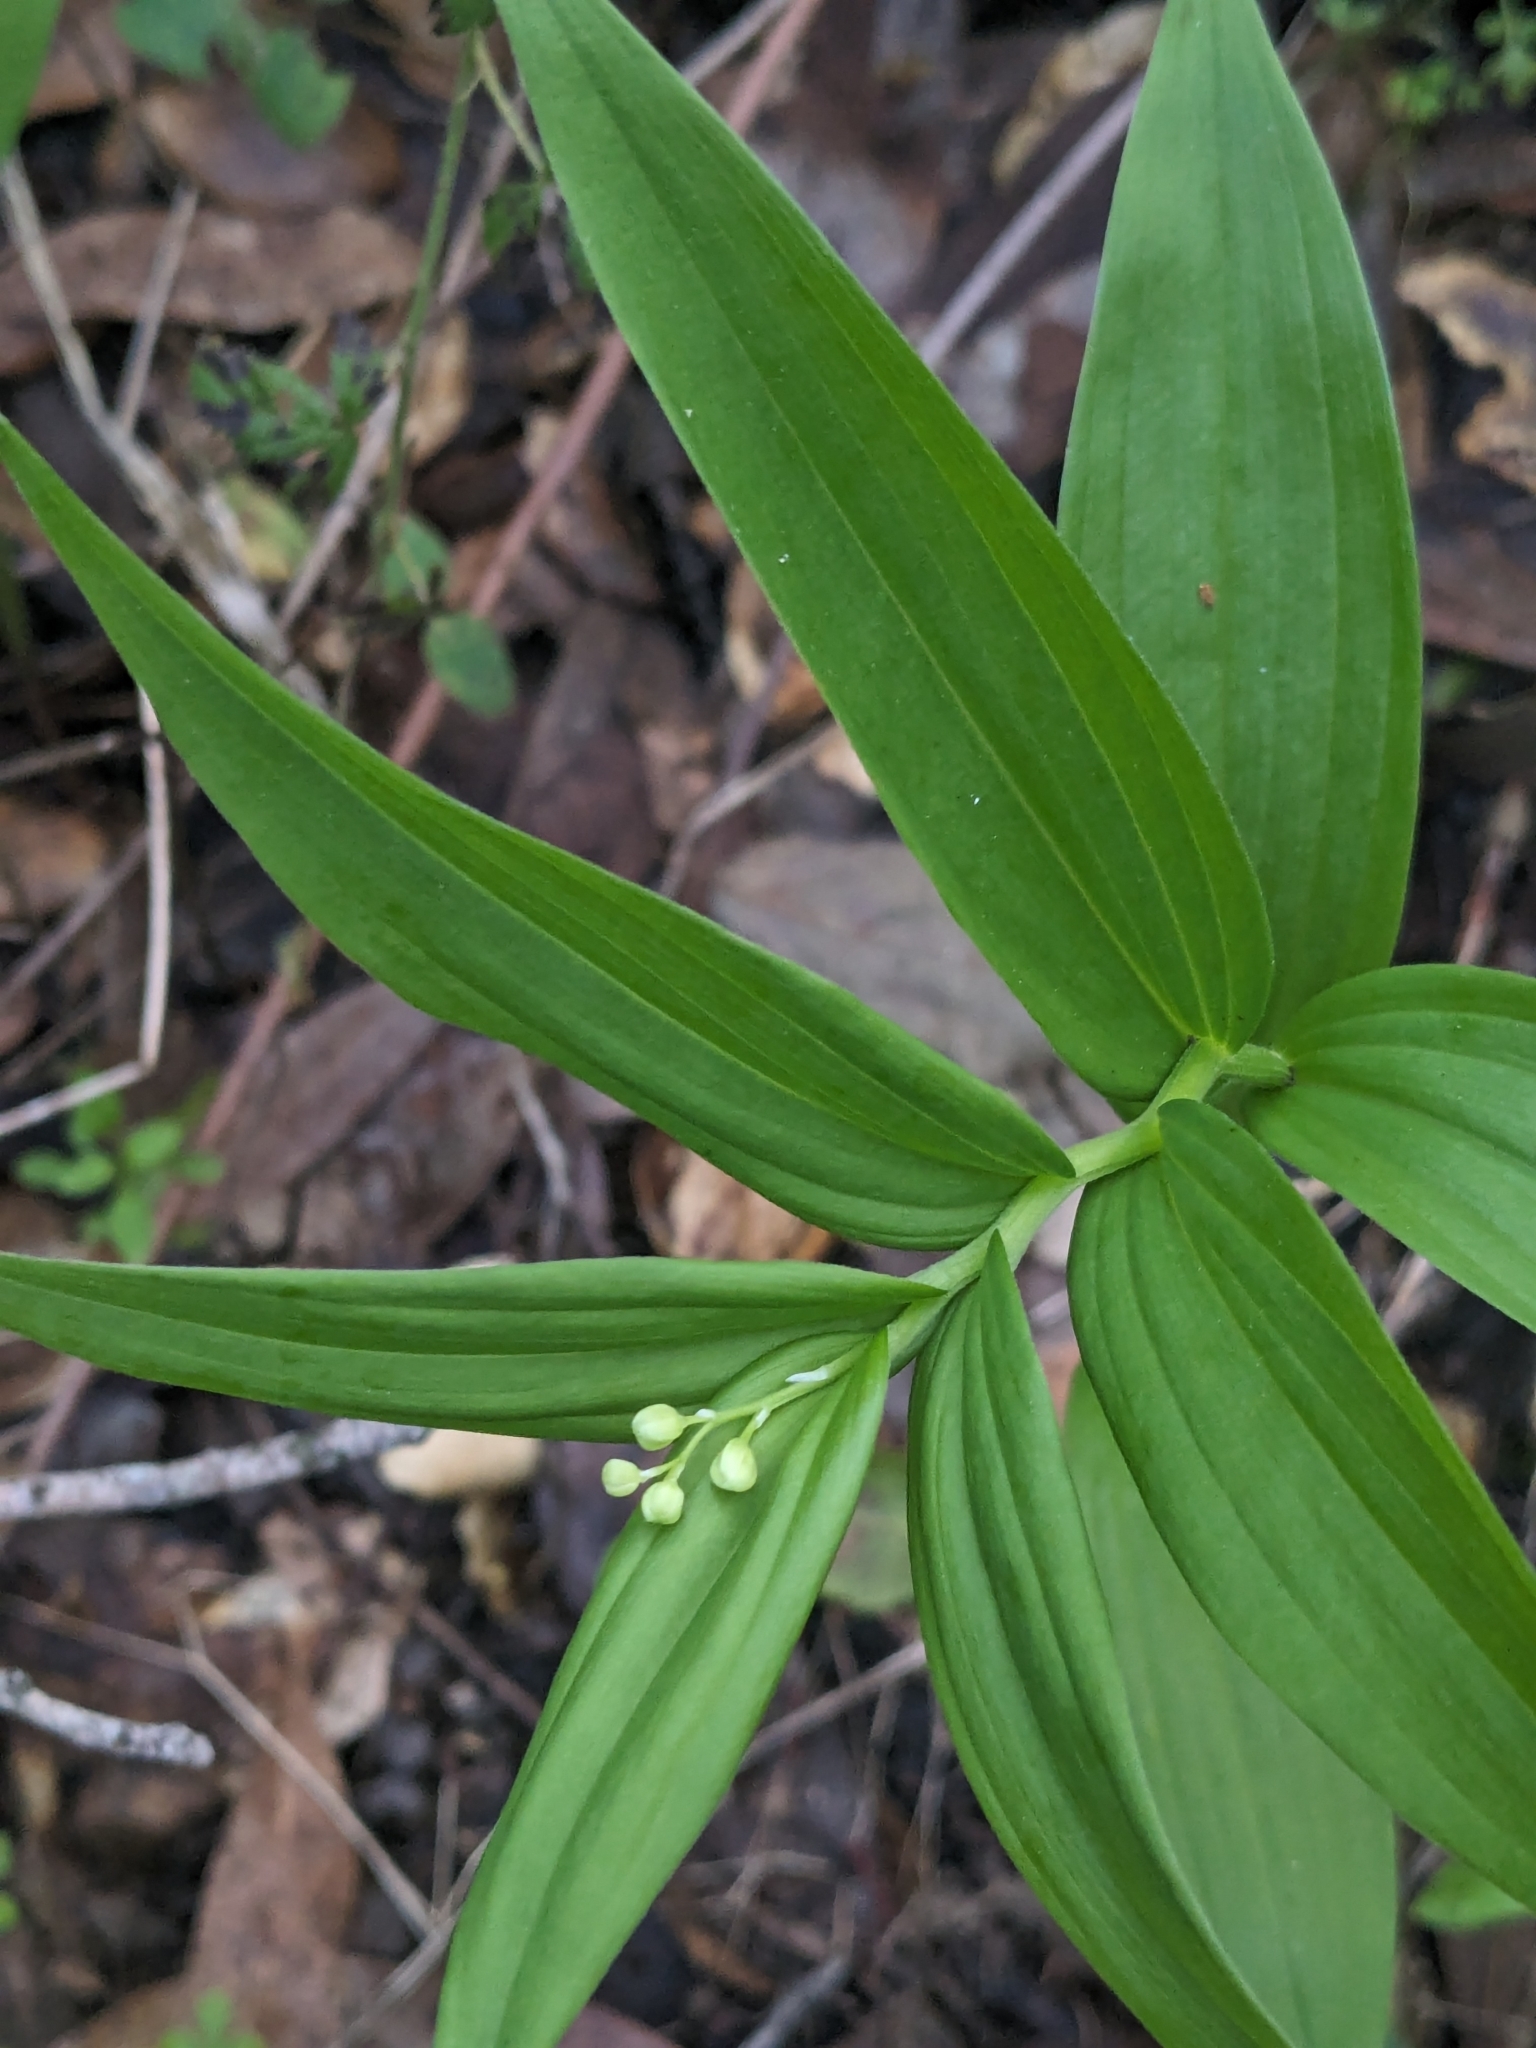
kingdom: Plantae
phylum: Tracheophyta
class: Liliopsida
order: Asparagales
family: Asparagaceae
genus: Maianthemum
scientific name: Maianthemum stellatum
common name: Little false solomon's seal
